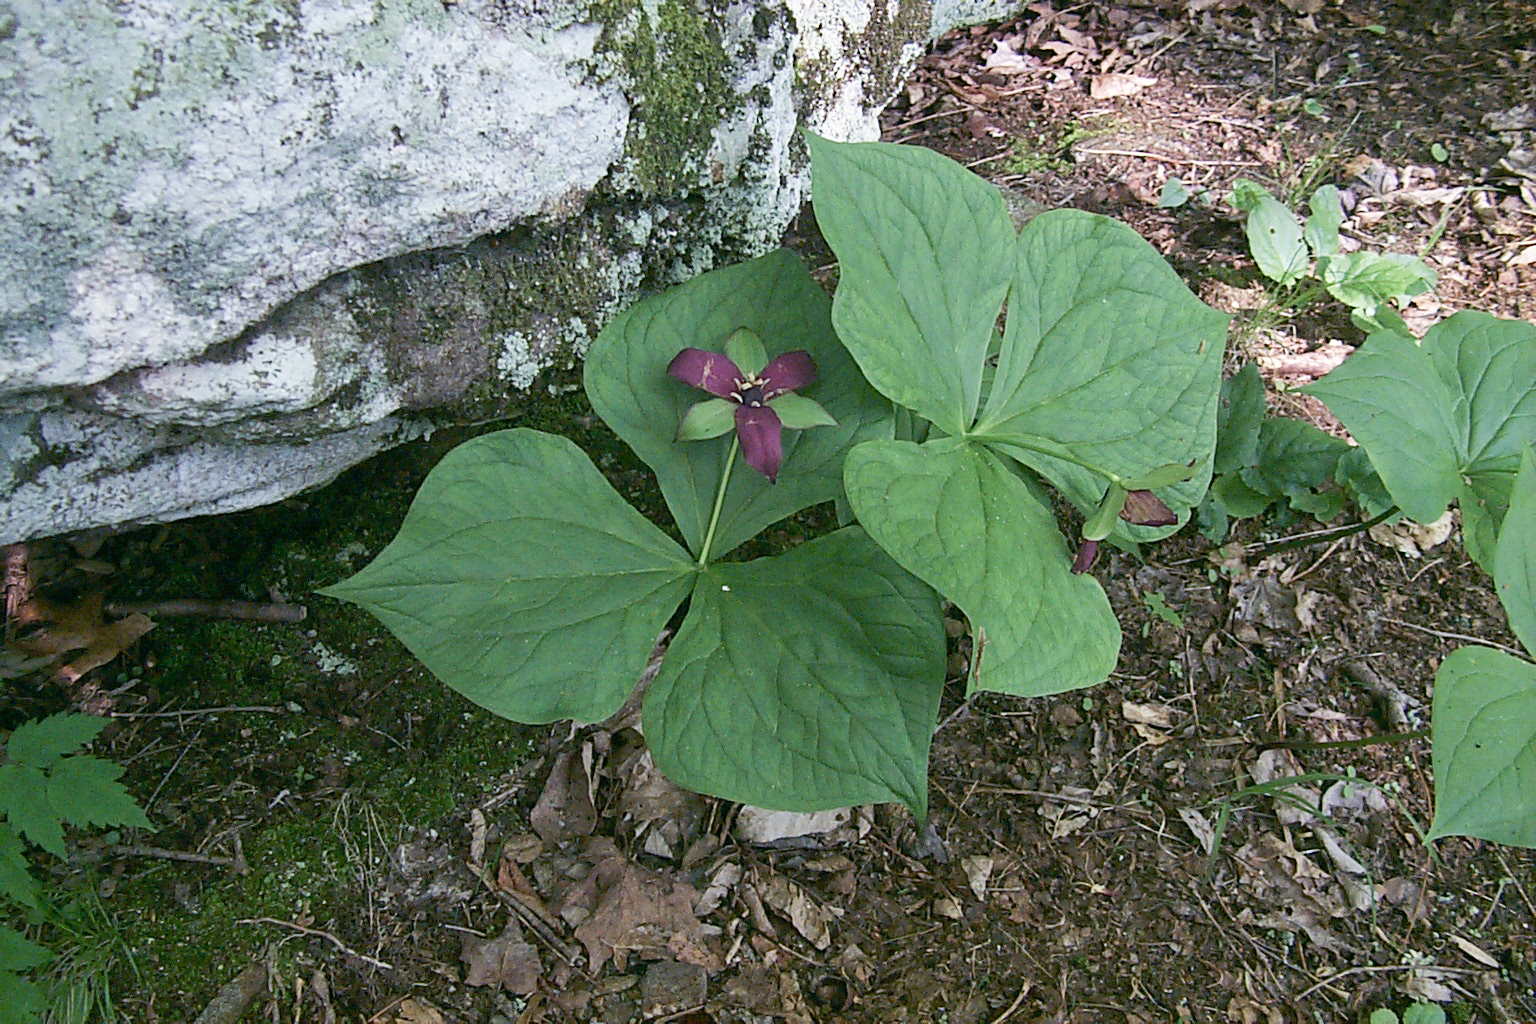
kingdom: Plantae
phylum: Tracheophyta
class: Liliopsida
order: Liliales
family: Melanthiaceae
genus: Trillium
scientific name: Trillium erectum
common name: Purple trillium
